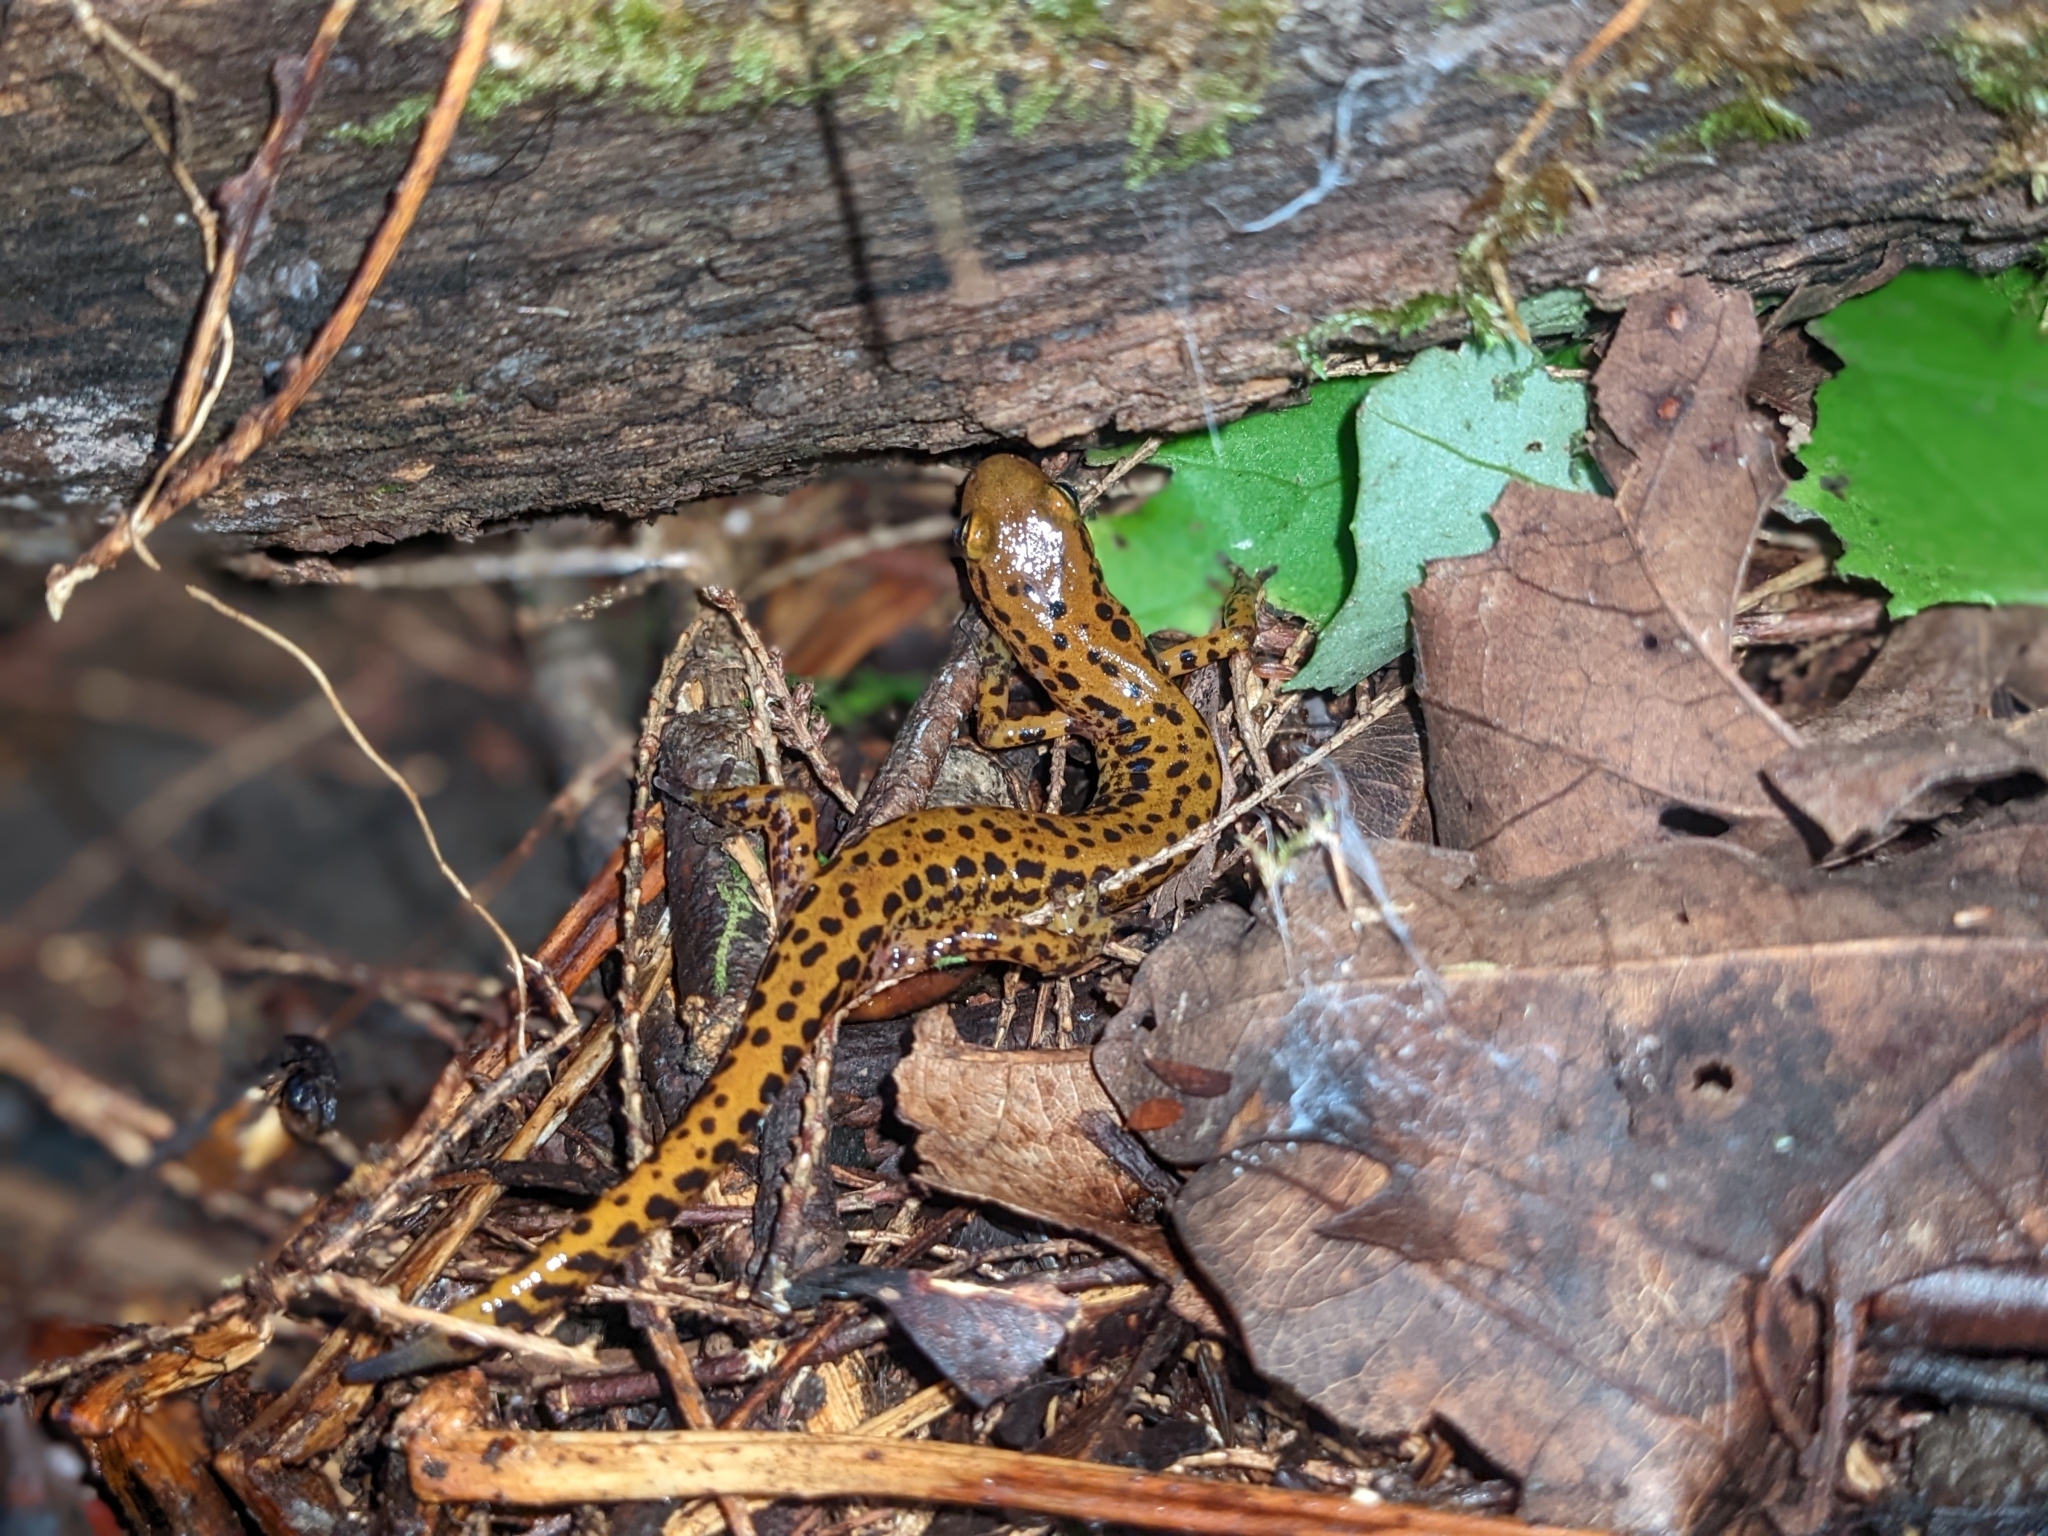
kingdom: Animalia
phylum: Chordata
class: Amphibia
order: Caudata
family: Plethodontidae
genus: Eurycea
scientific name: Eurycea longicauda
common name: Long-tailed salamander
